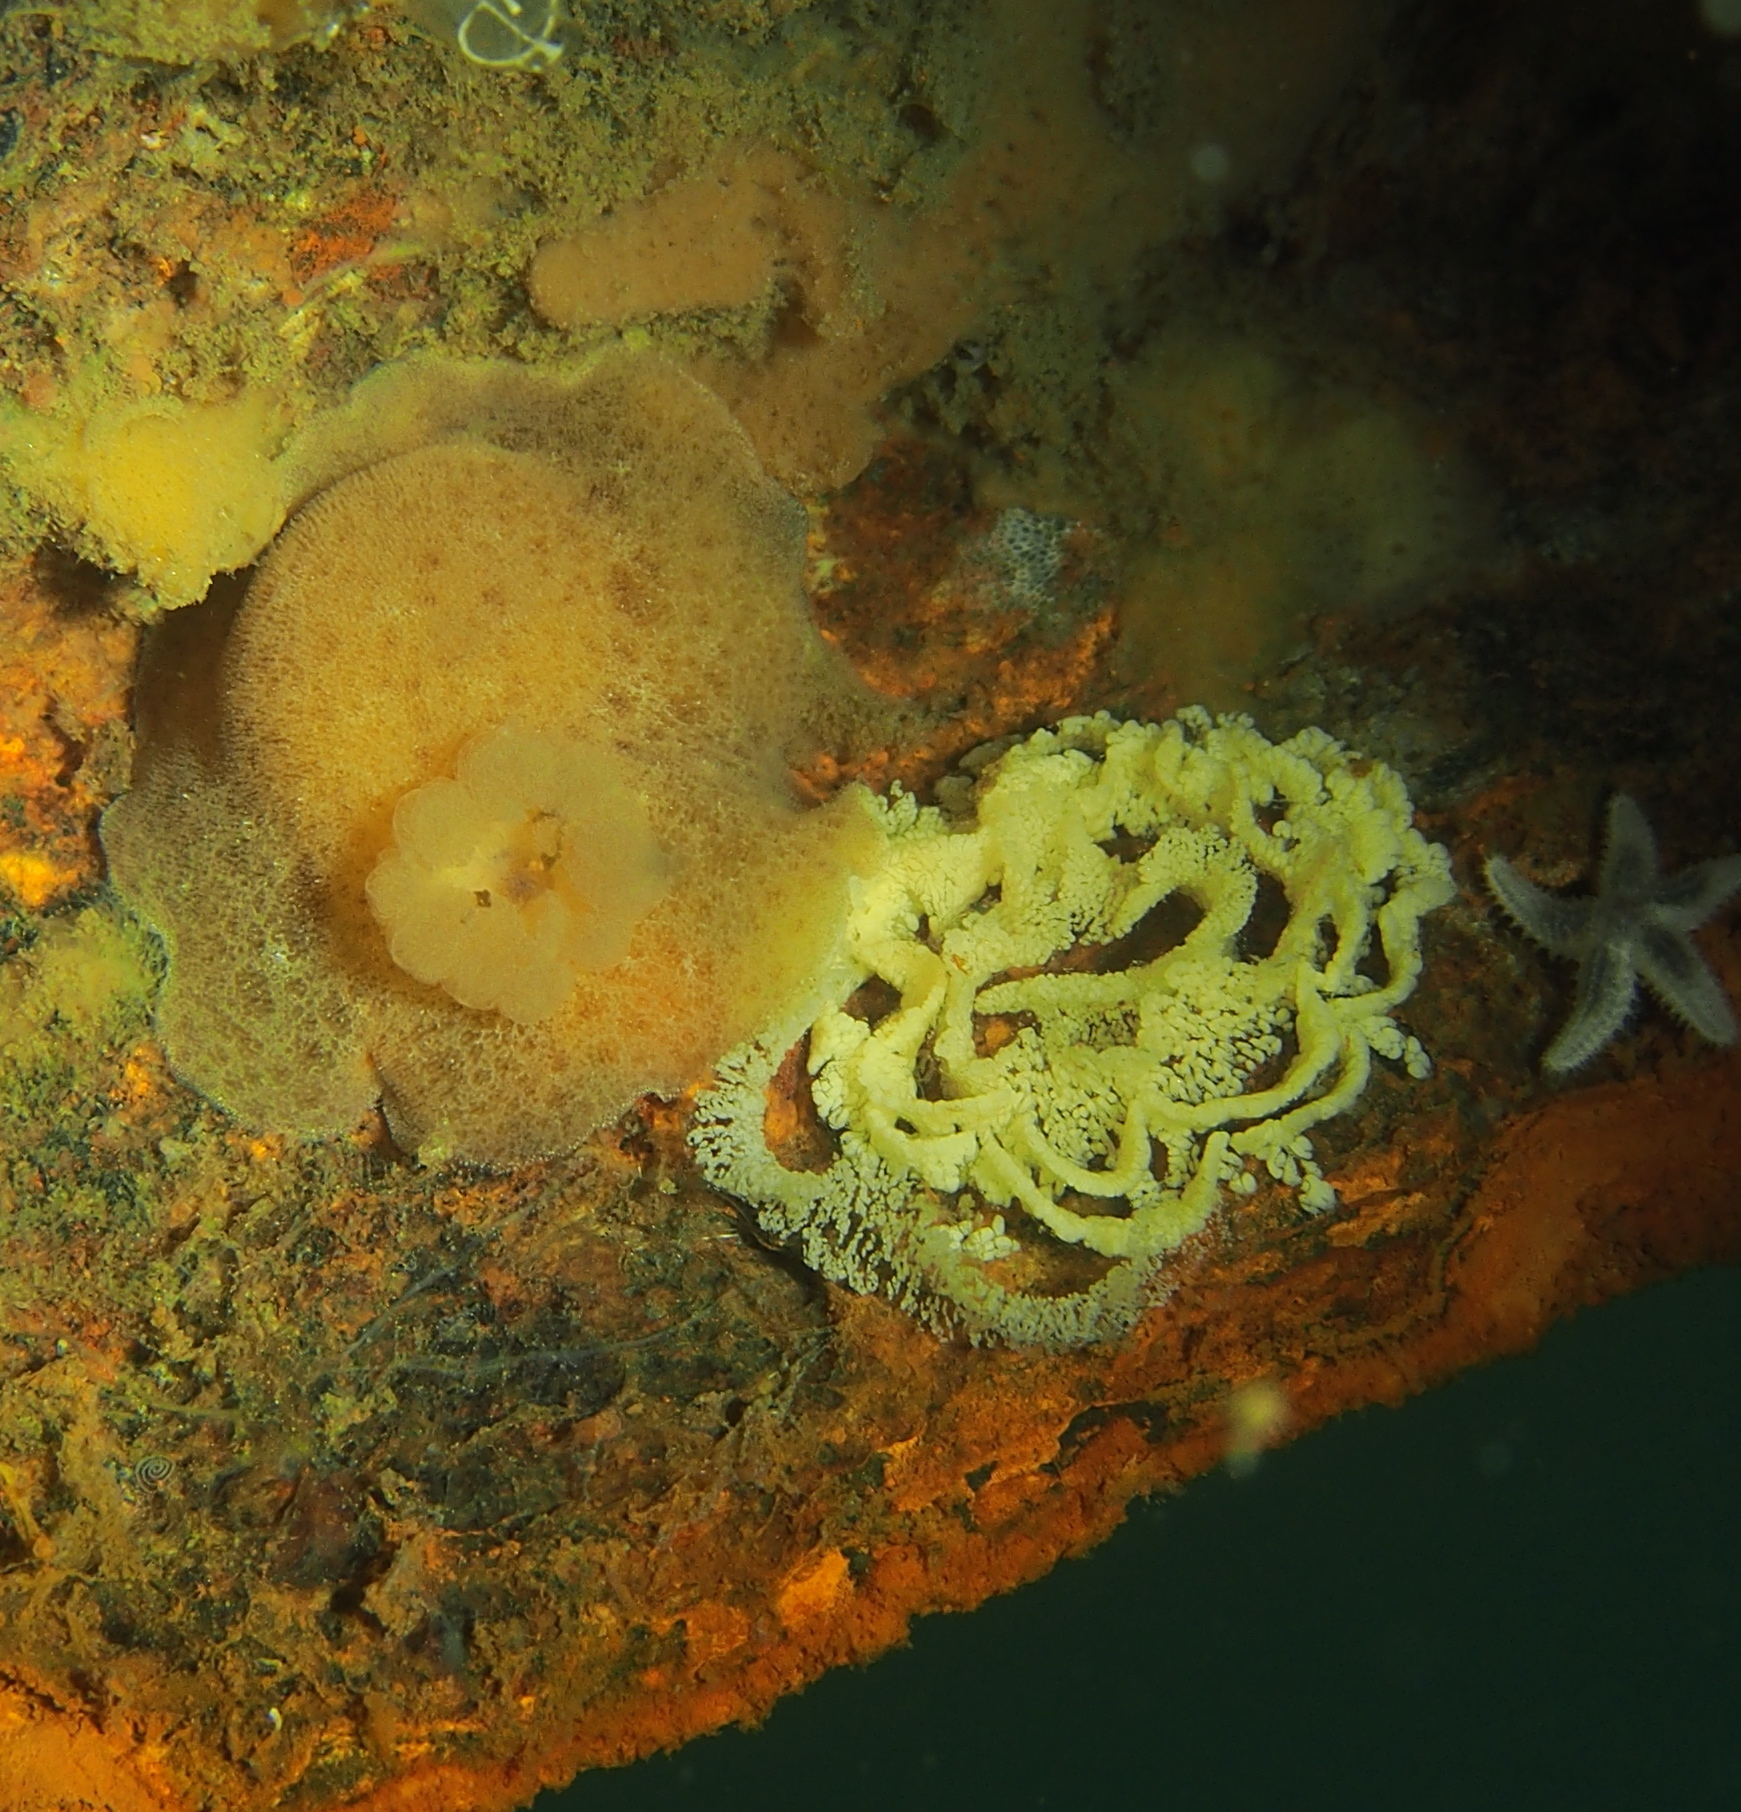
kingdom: Animalia
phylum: Mollusca
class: Gastropoda
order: Nudibranchia
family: Discodorididae
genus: Jorunna
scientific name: Jorunna tomentosa
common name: Grey sea slug
